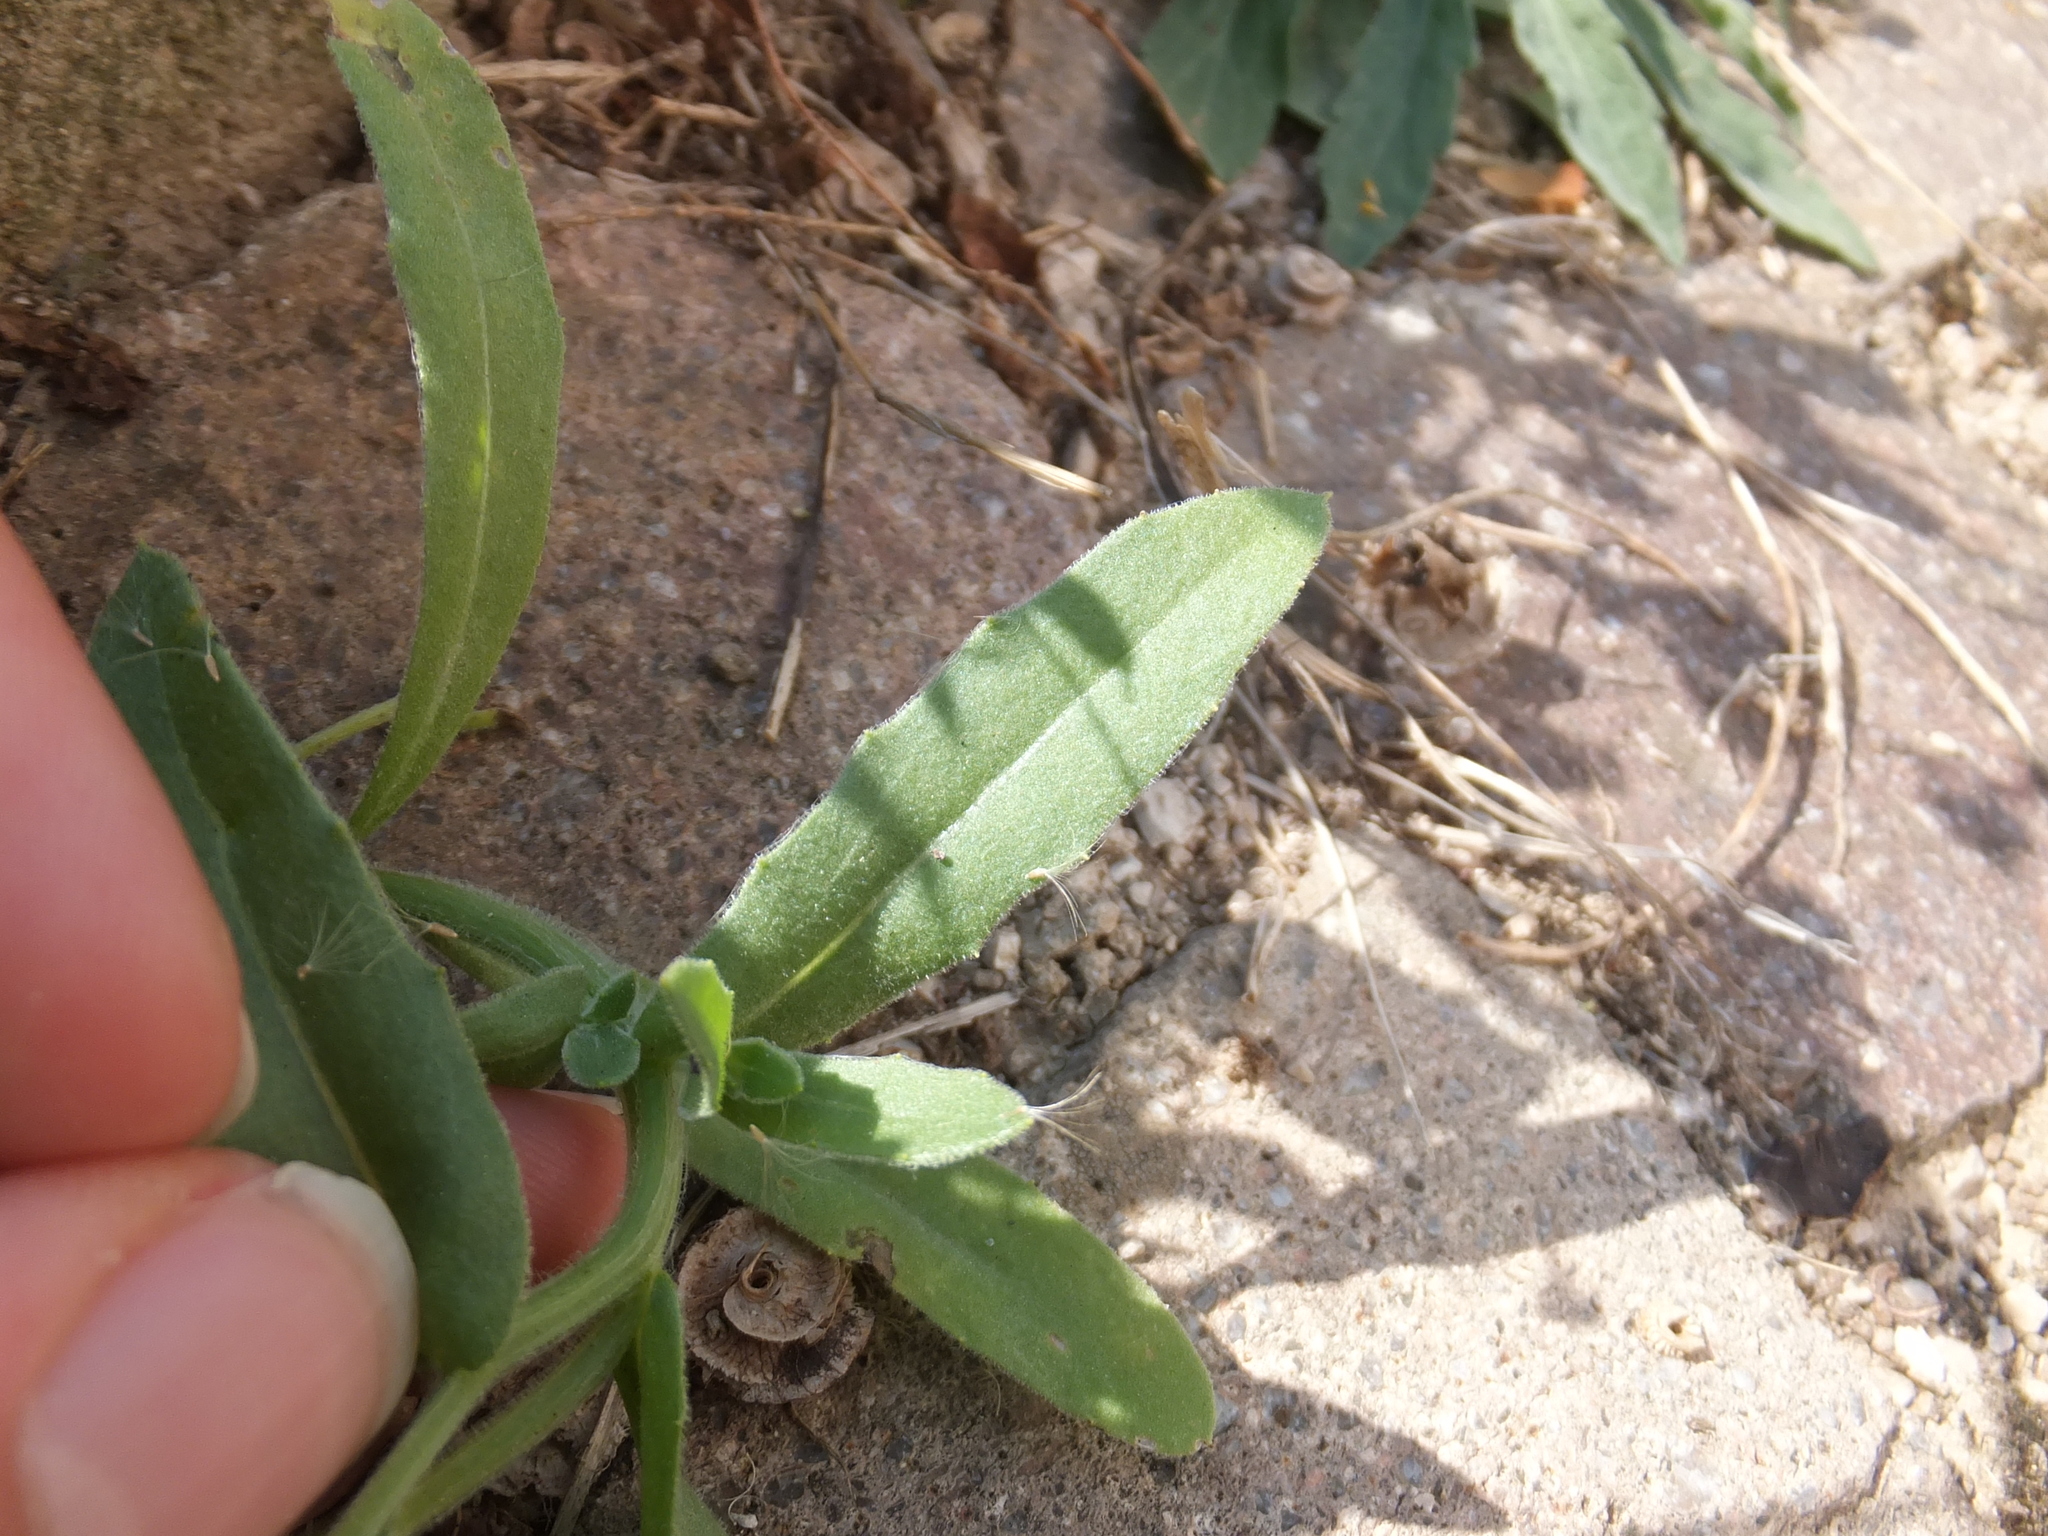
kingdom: Plantae
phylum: Tracheophyta
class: Magnoliopsida
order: Asterales
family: Asteraceae
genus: Calendula
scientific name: Calendula arvensis
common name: Field marigold
